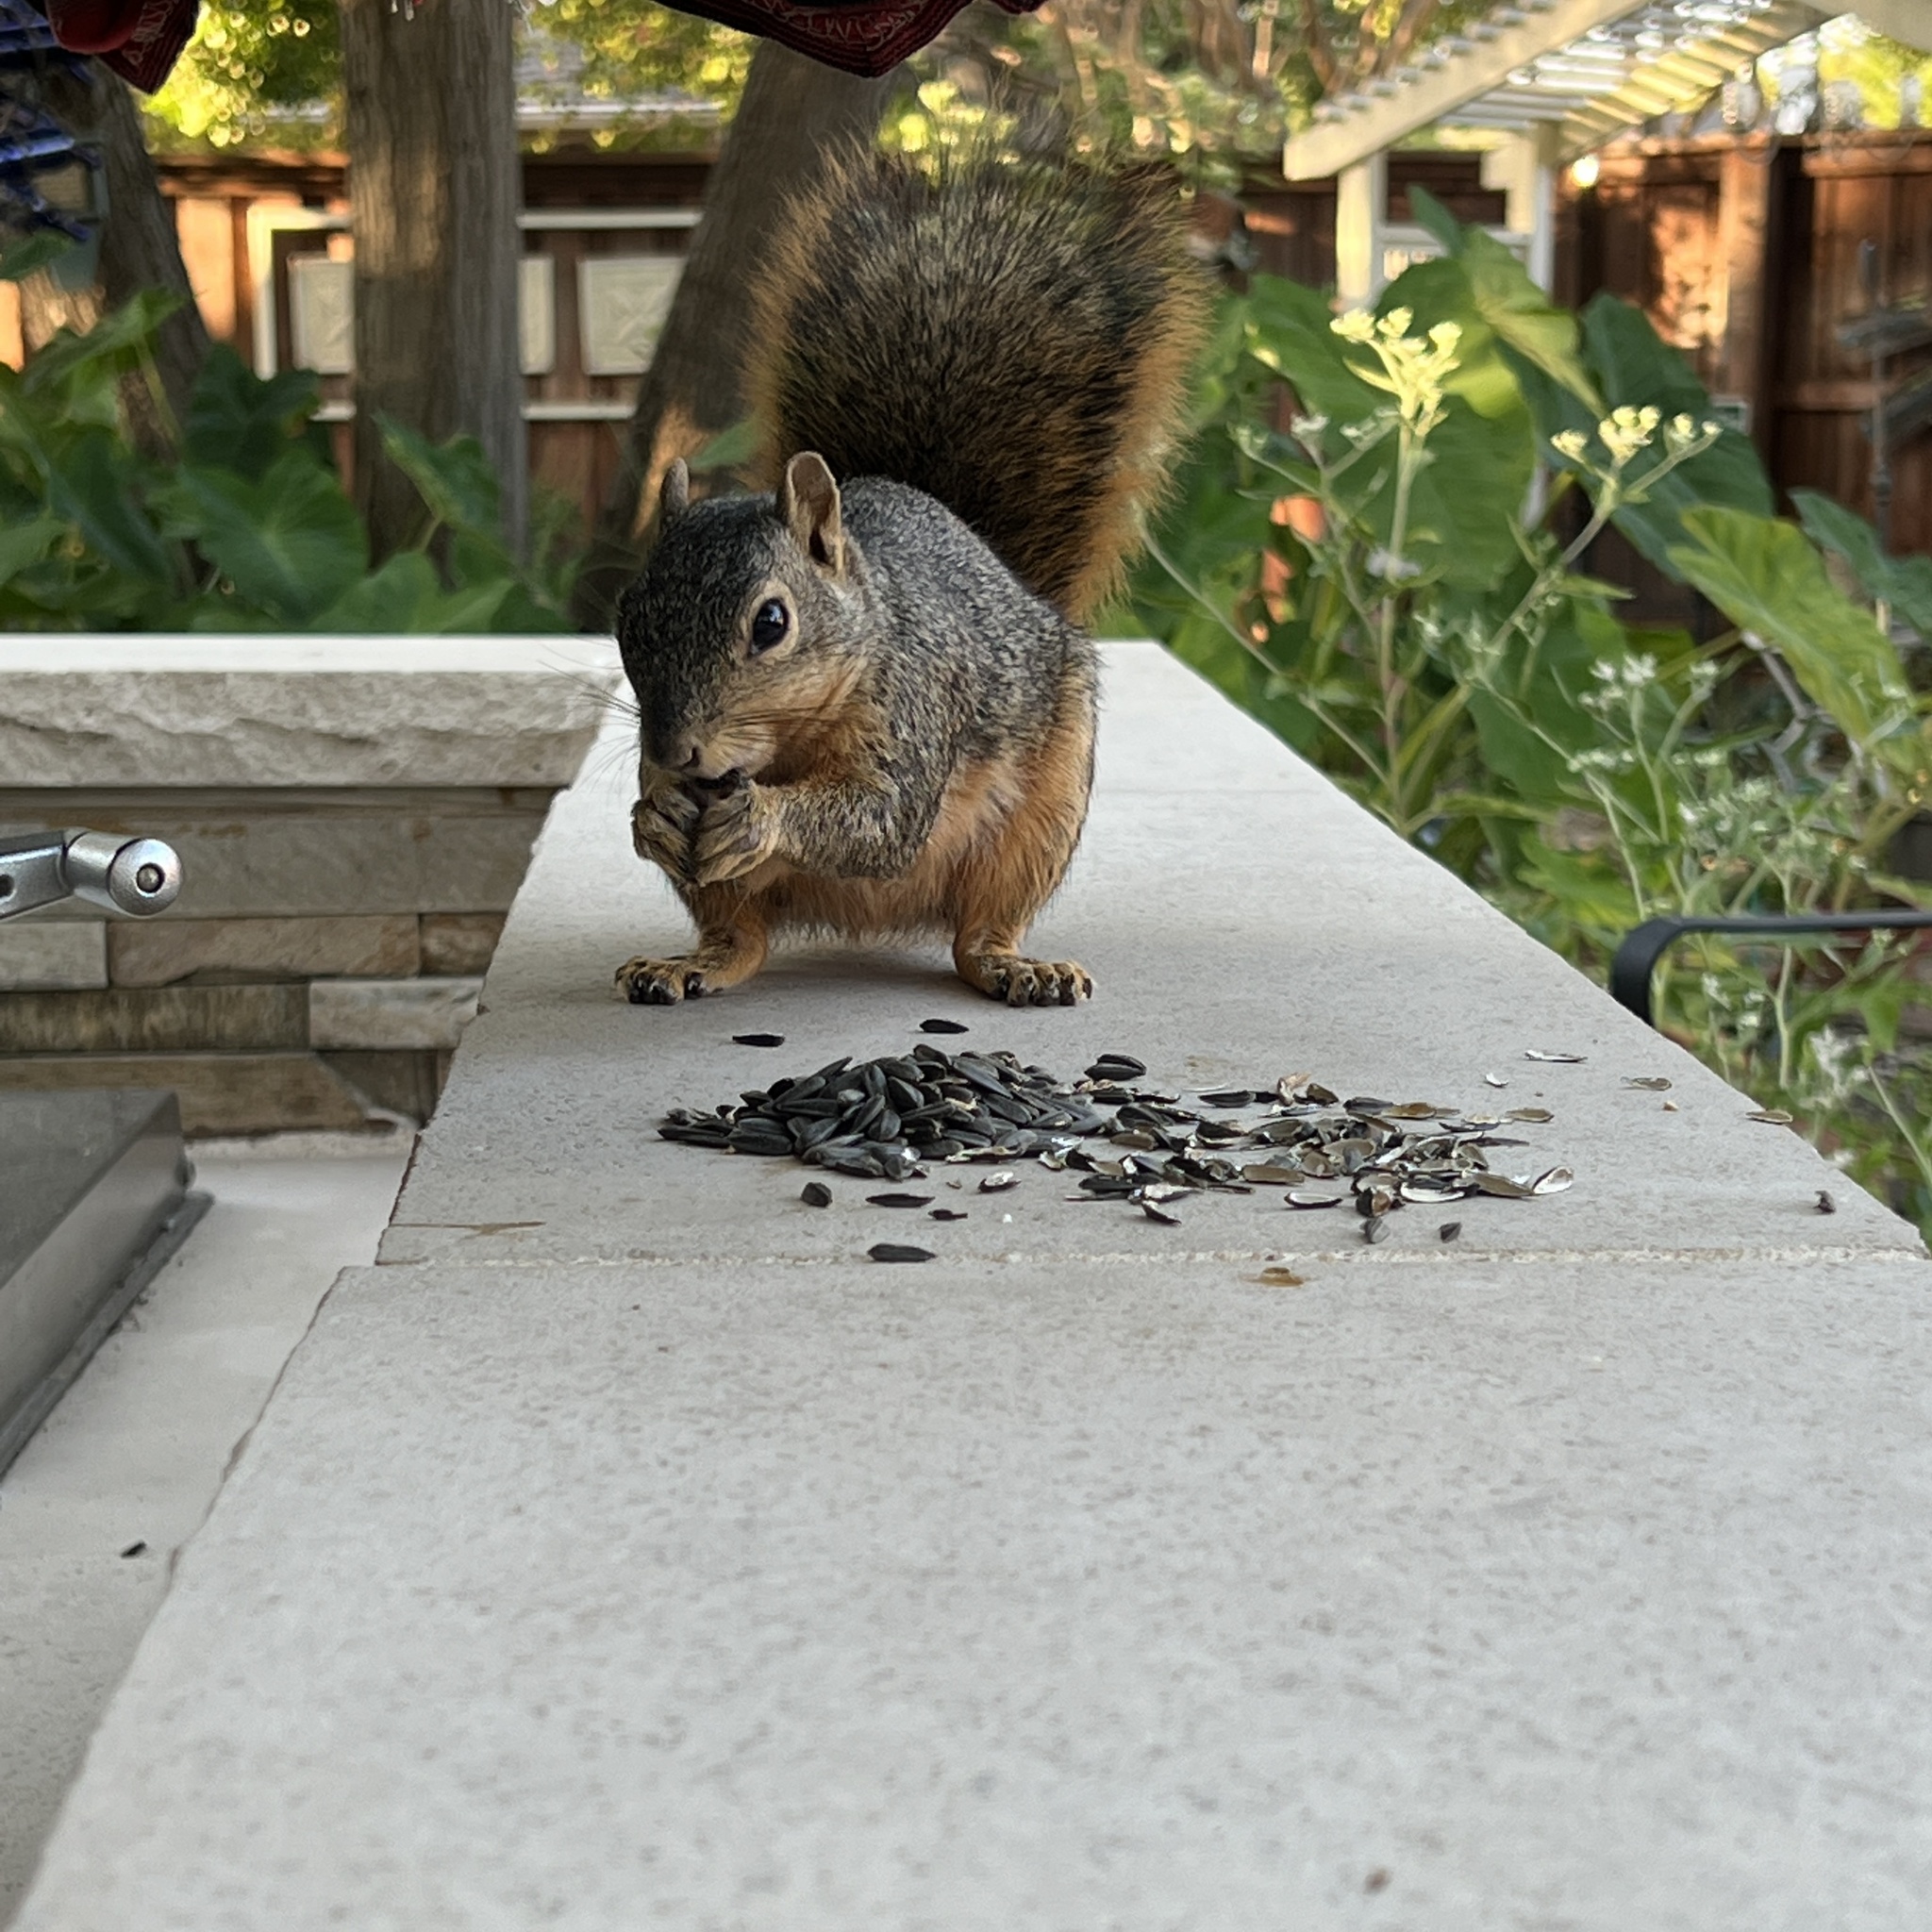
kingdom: Animalia
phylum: Chordata
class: Mammalia
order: Rodentia
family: Sciuridae
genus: Sciurus
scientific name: Sciurus niger
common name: Fox squirrel
